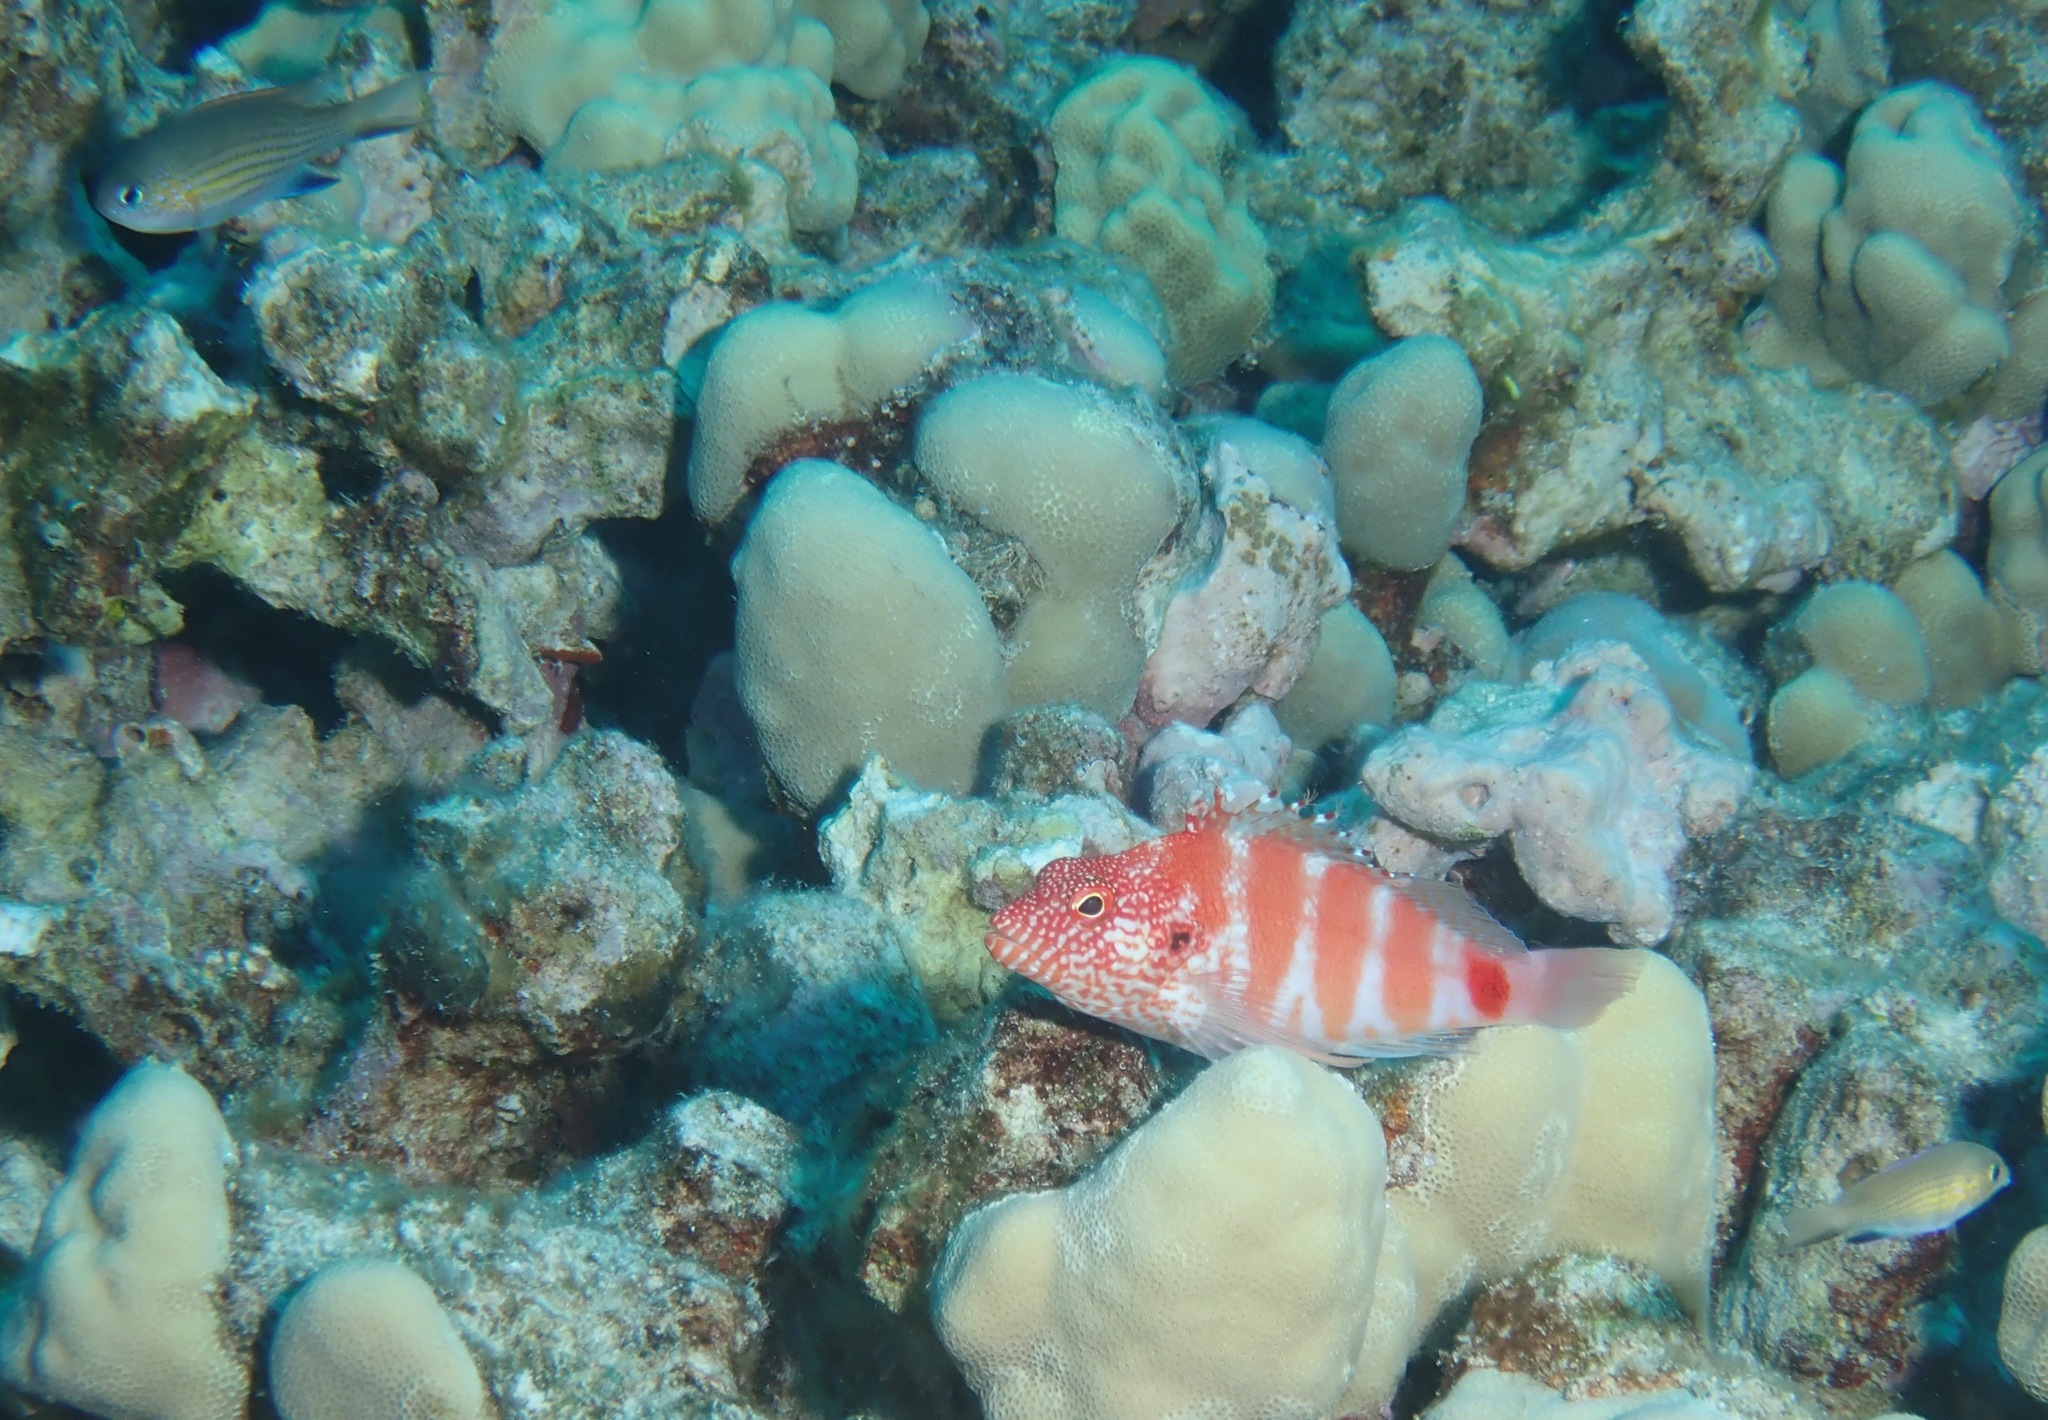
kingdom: Animalia
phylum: Chordata
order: Perciformes
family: Cirrhitidae
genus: Cirrhitops
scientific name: Cirrhitops fasciatus
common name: Redbarred hawkfish
